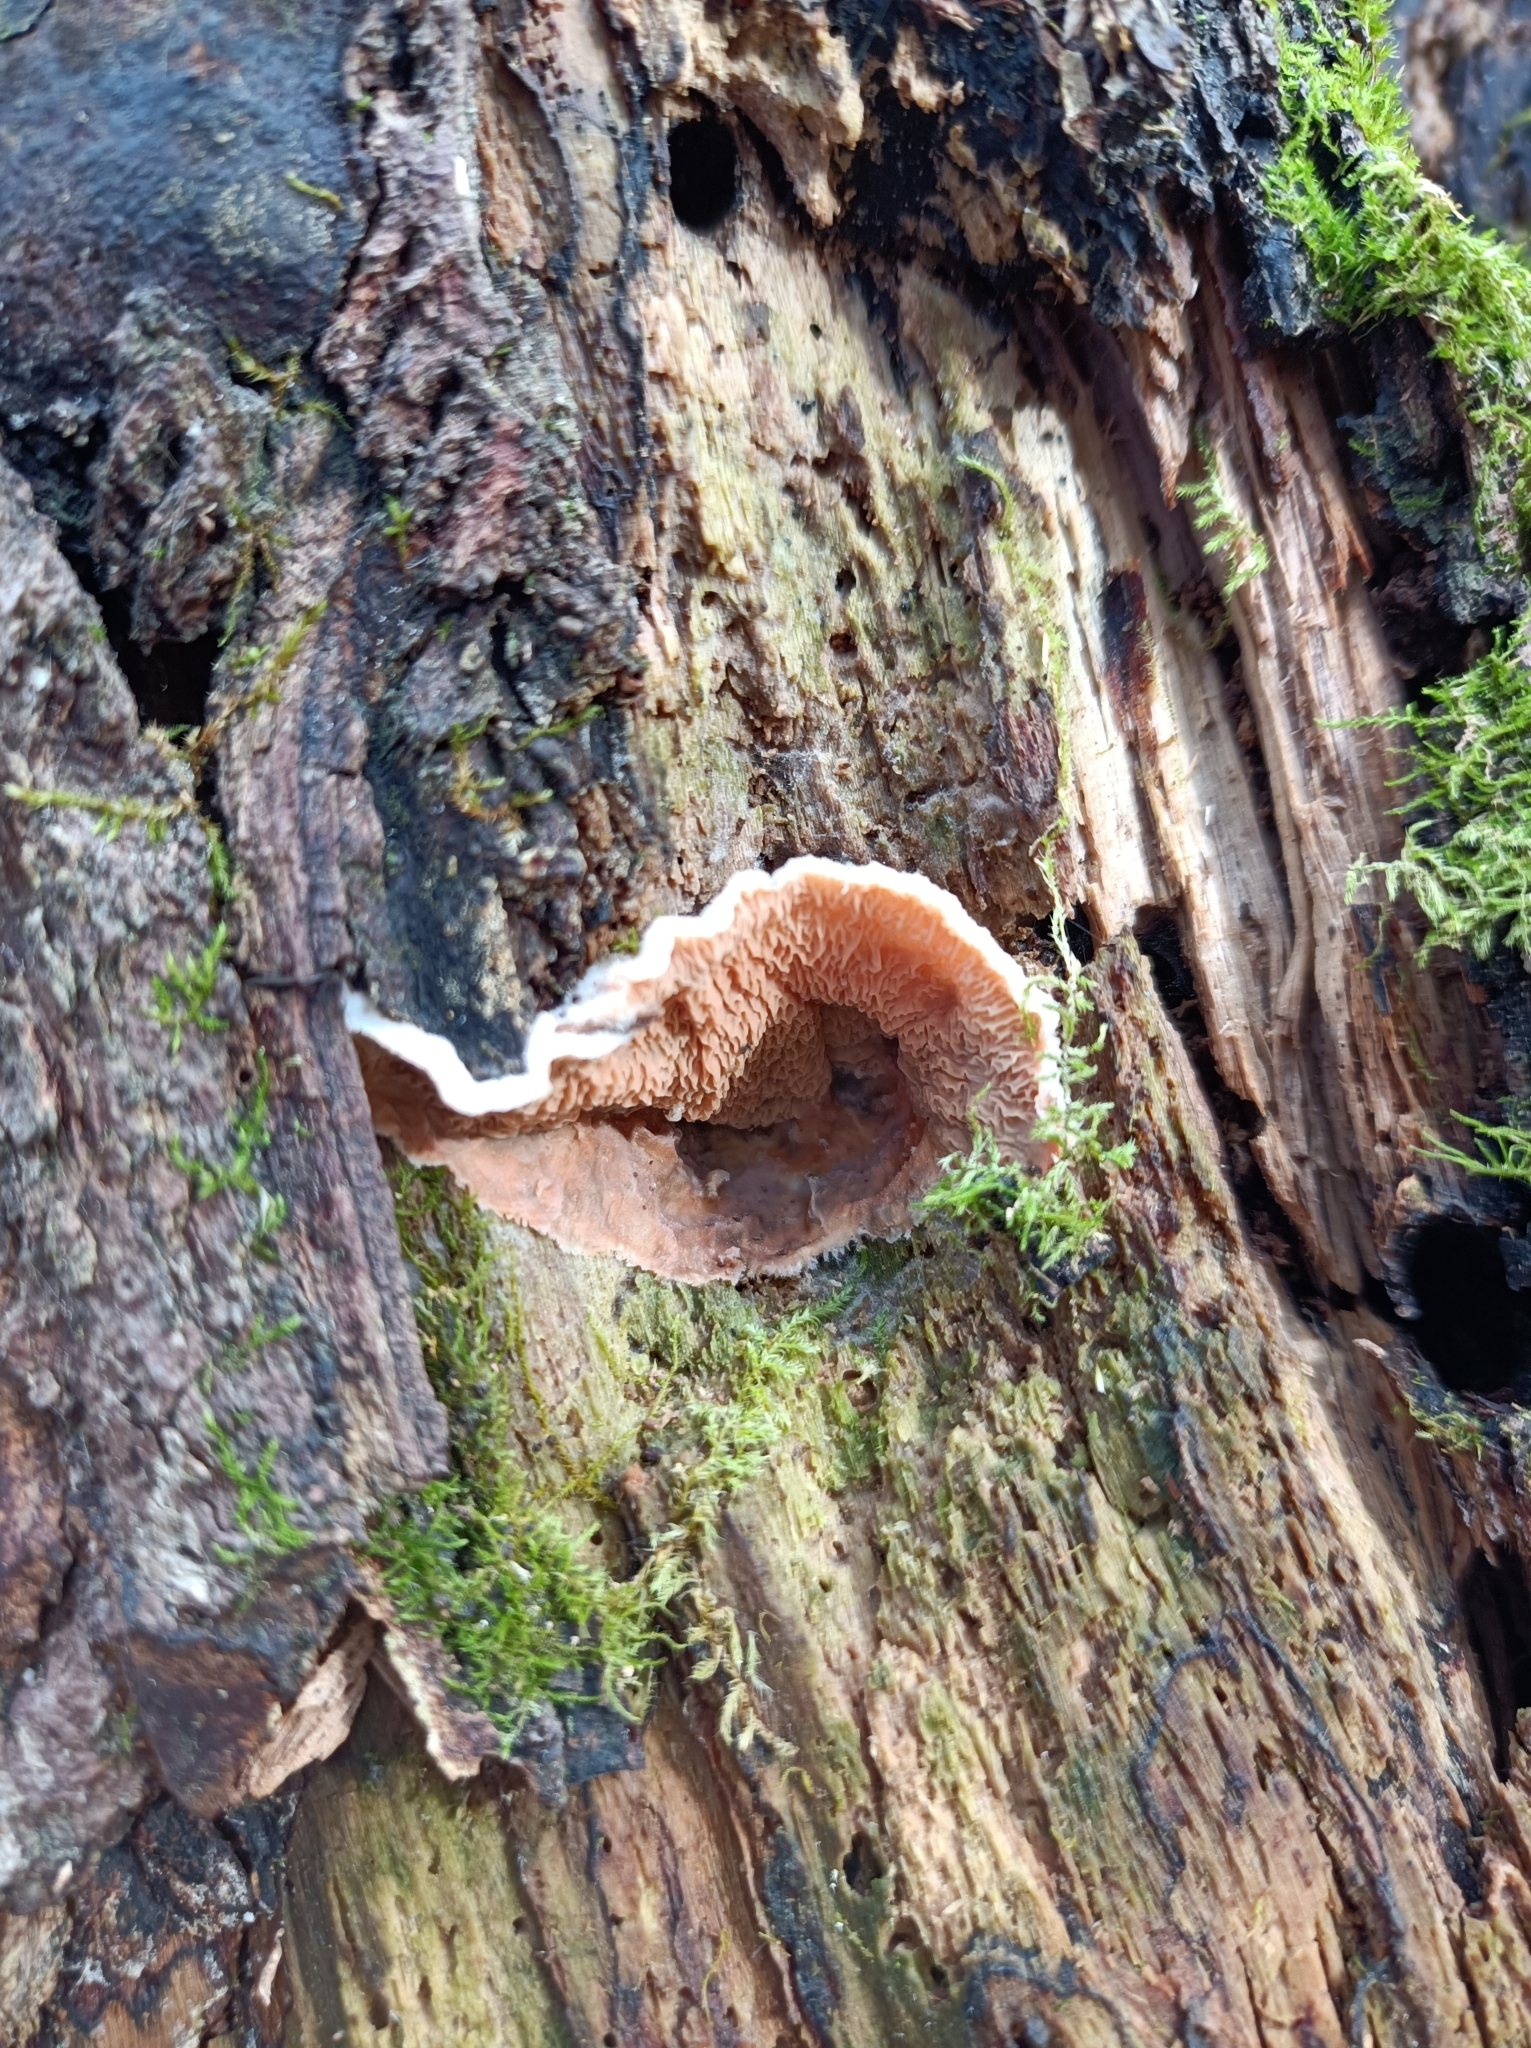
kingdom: Fungi
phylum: Basidiomycota
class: Agaricomycetes
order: Polyporales
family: Meruliaceae
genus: Phlebia
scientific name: Phlebia tremellosa
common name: Jelly rot
